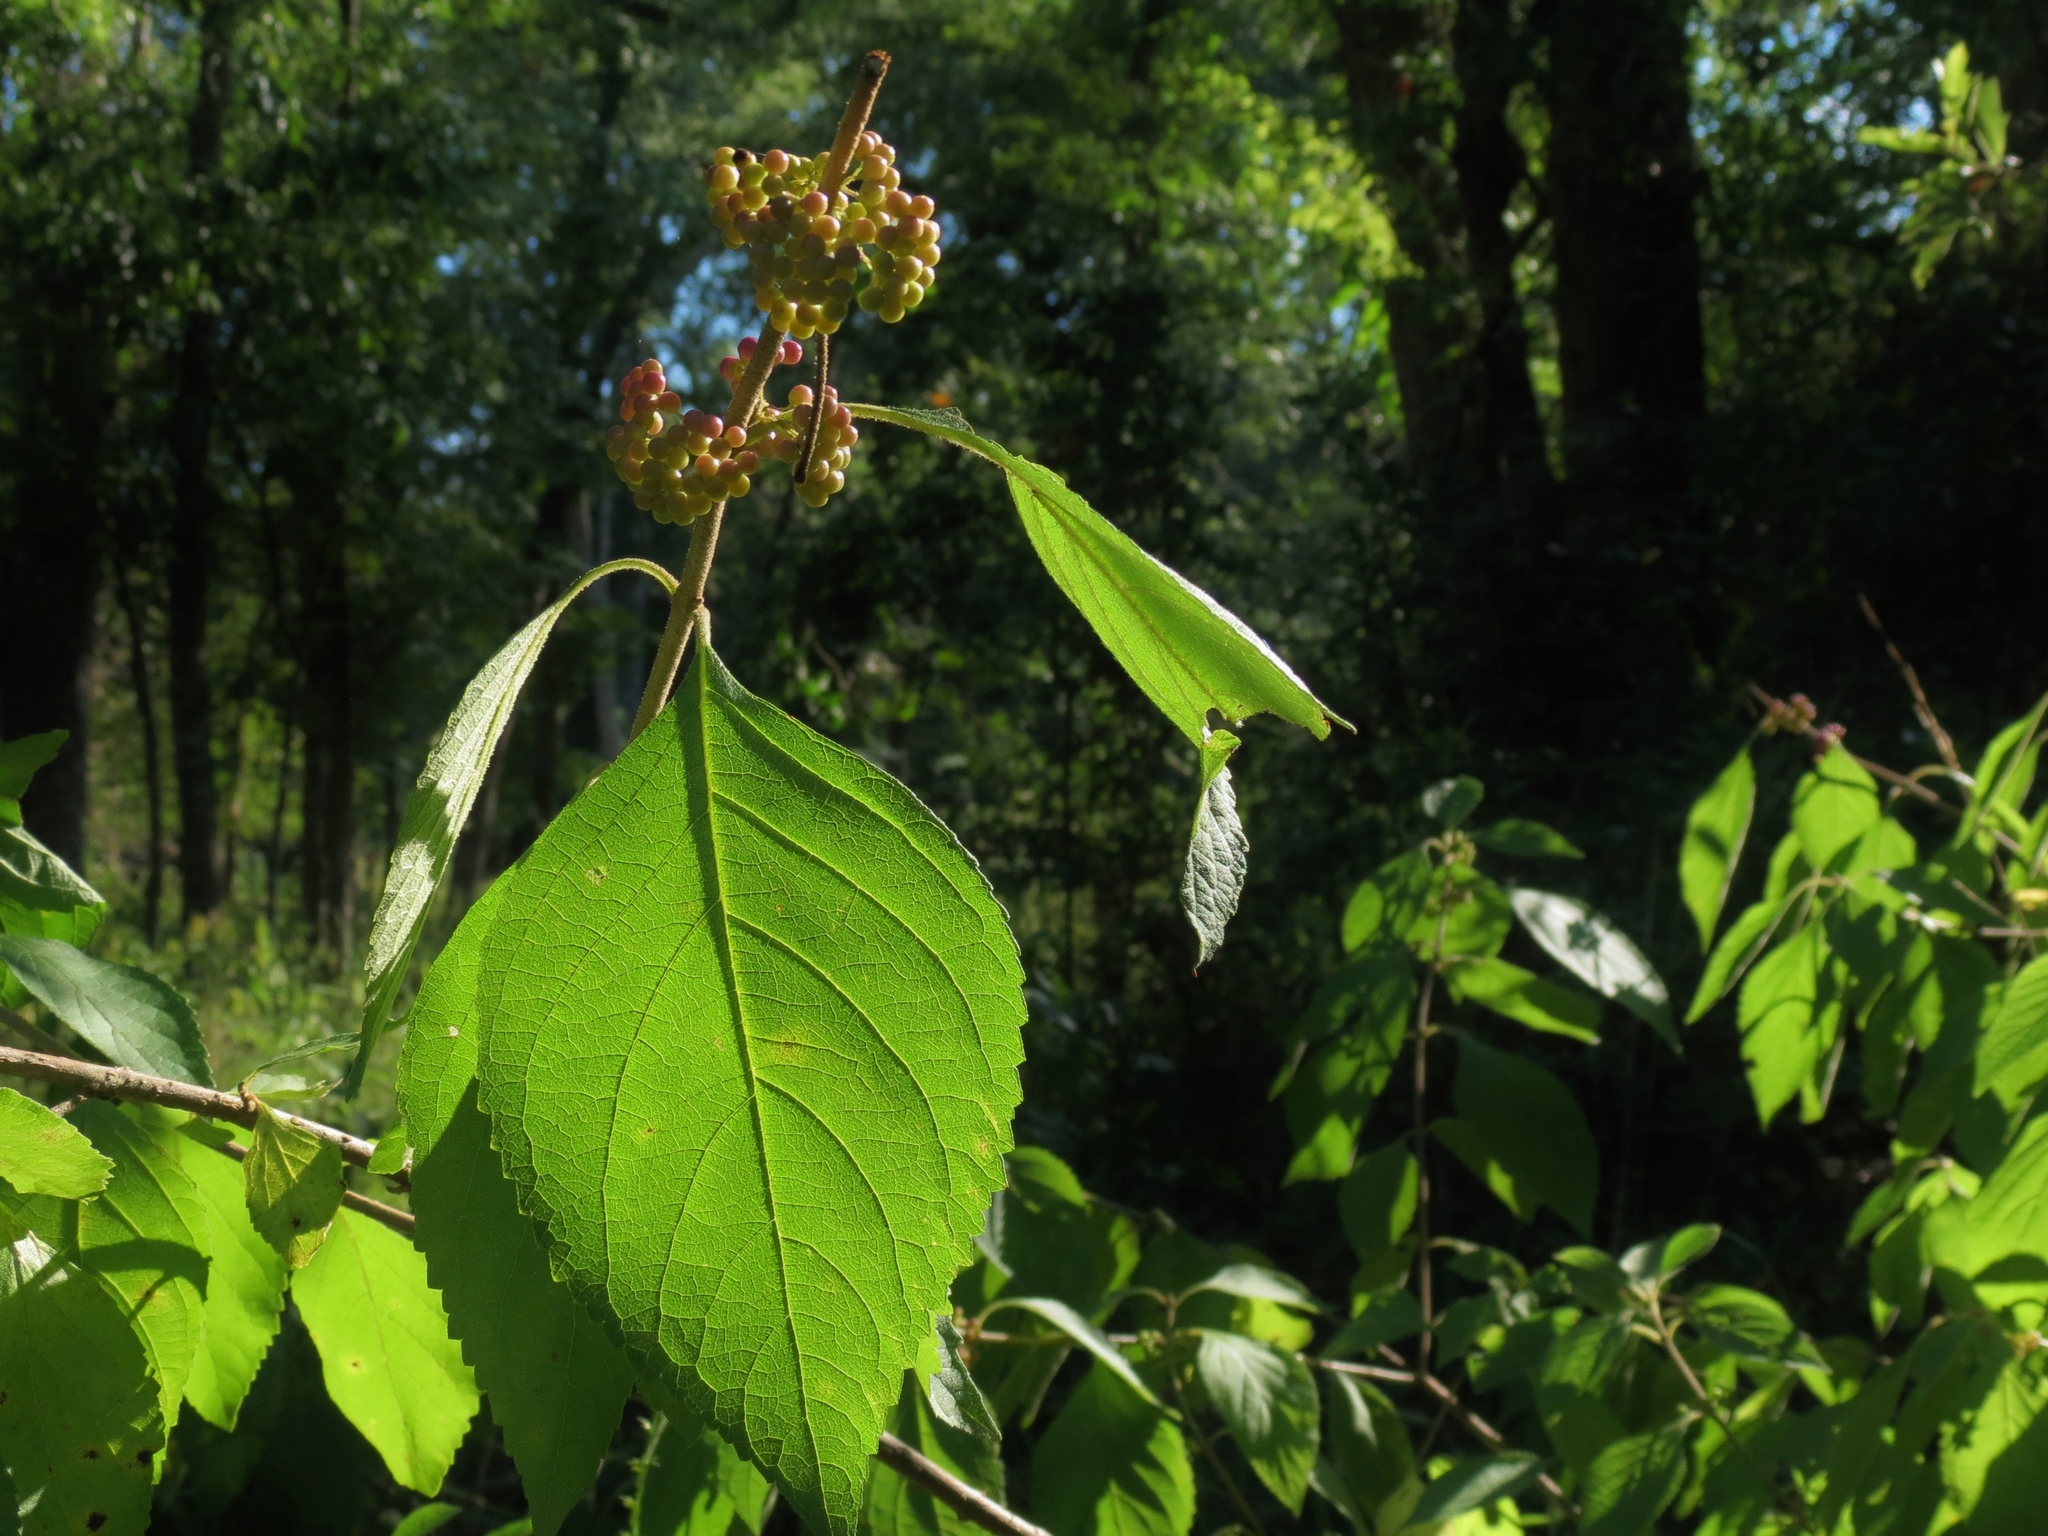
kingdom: Plantae
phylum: Tracheophyta
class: Magnoliopsida
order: Lamiales
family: Lamiaceae
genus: Callicarpa
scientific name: Callicarpa americana
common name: American beautyberry
